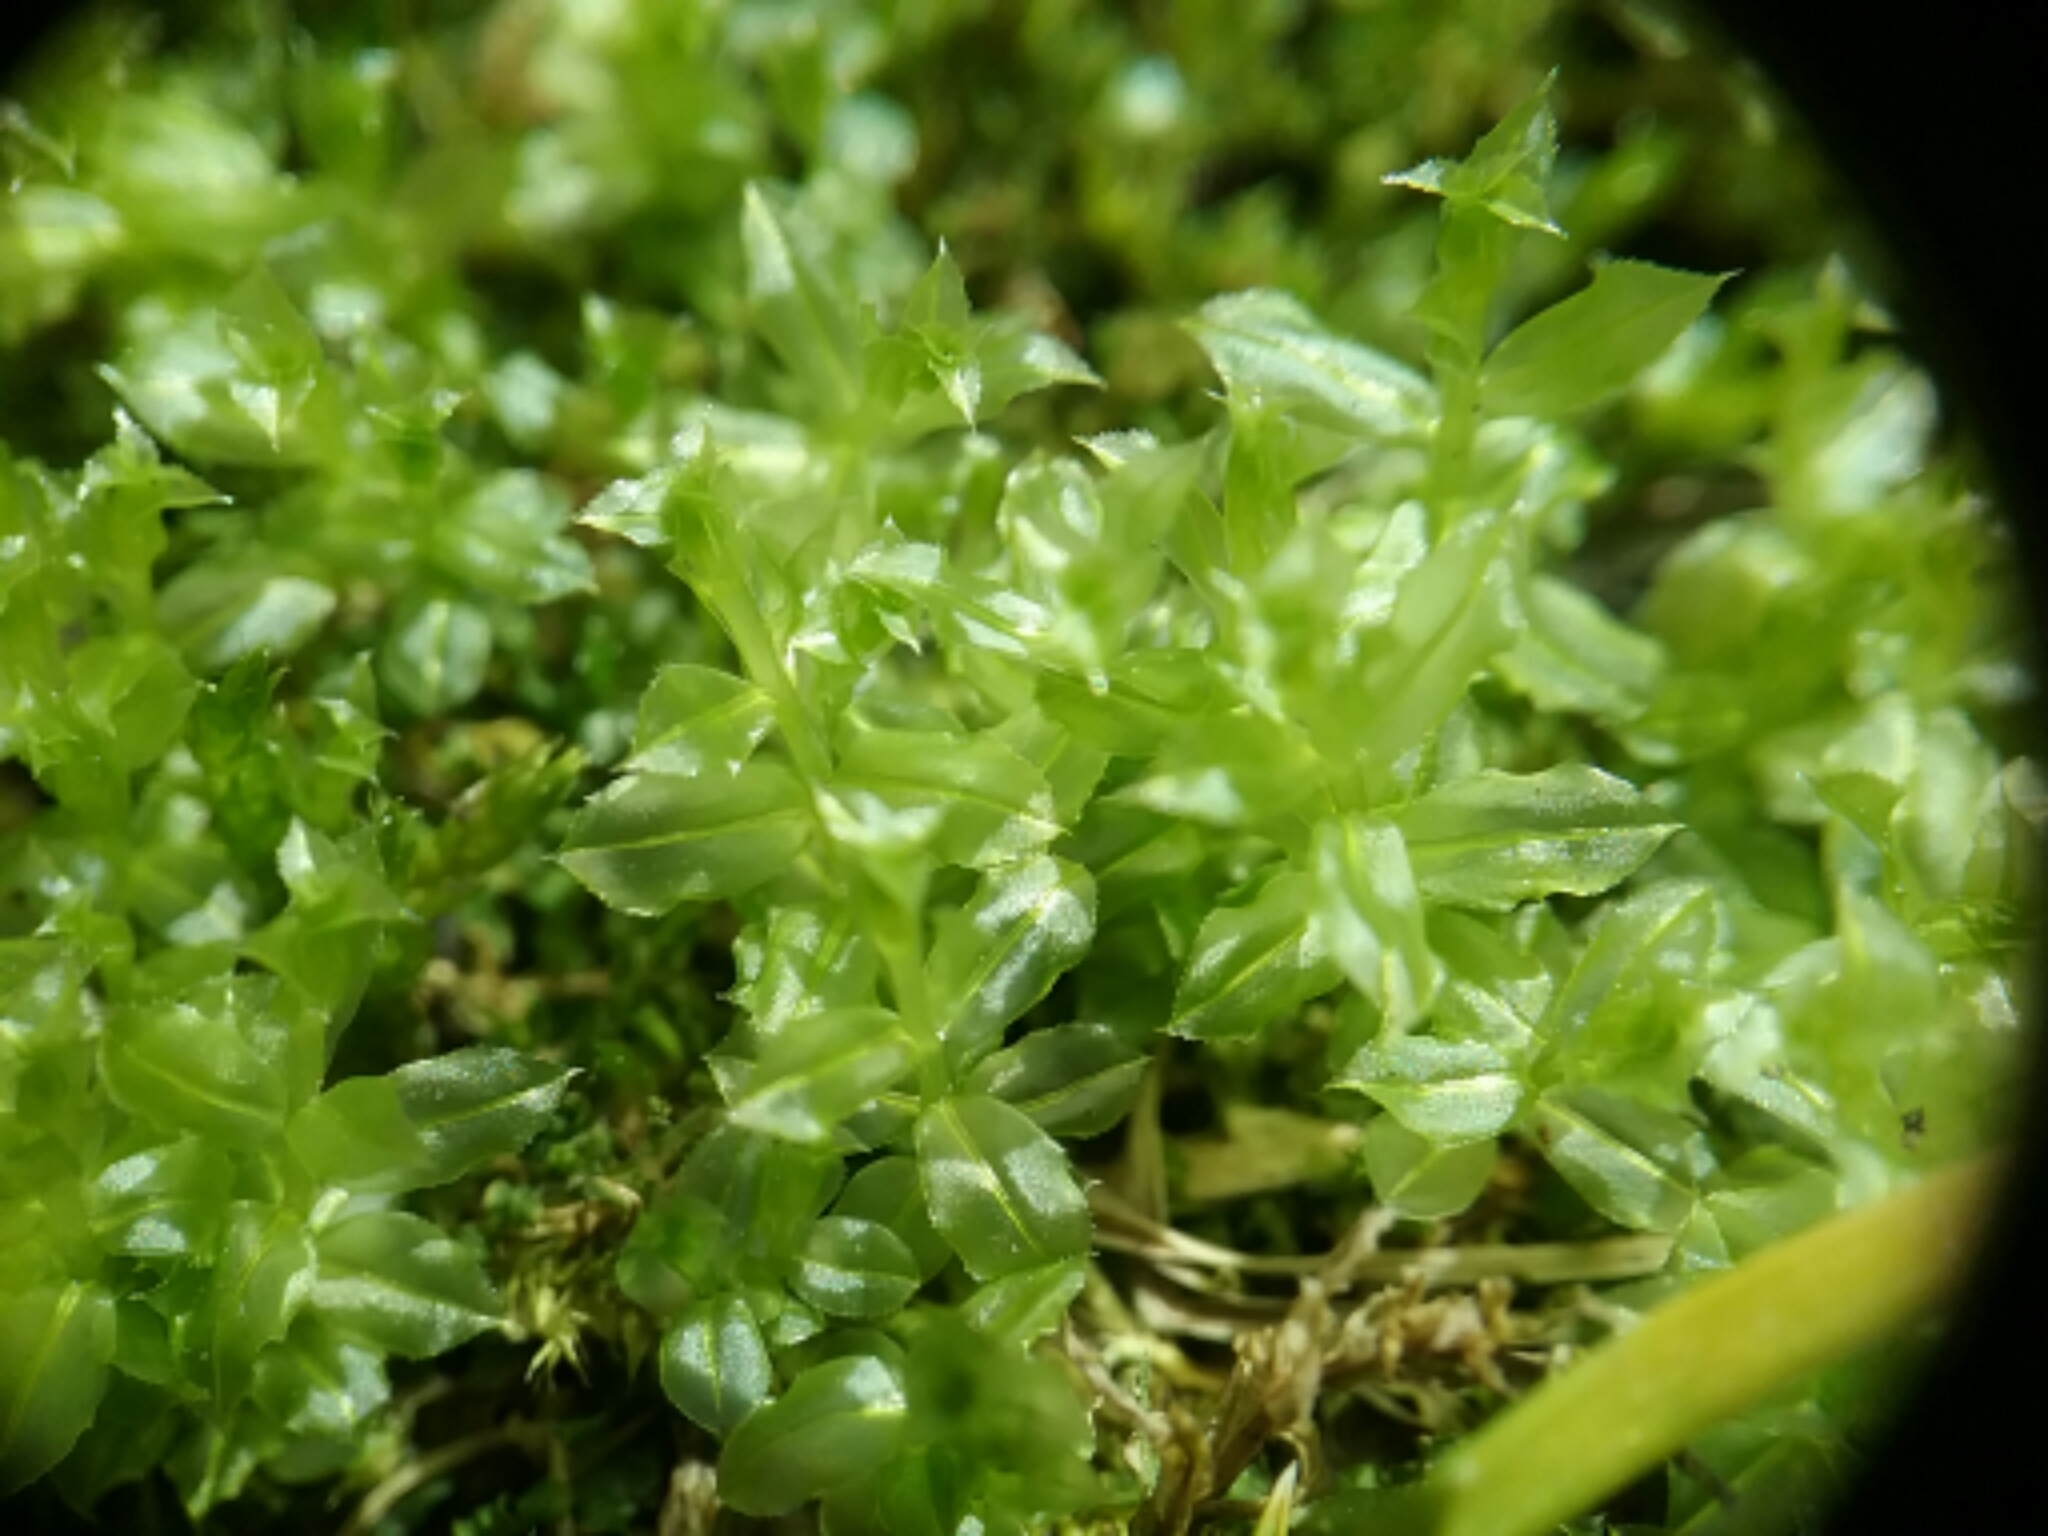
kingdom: Plantae
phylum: Bryophyta
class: Bryopsida
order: Bryales
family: Mniaceae
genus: Plagiomnium
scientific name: Plagiomnium cuspidatum
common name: Woodsy leafy moss
